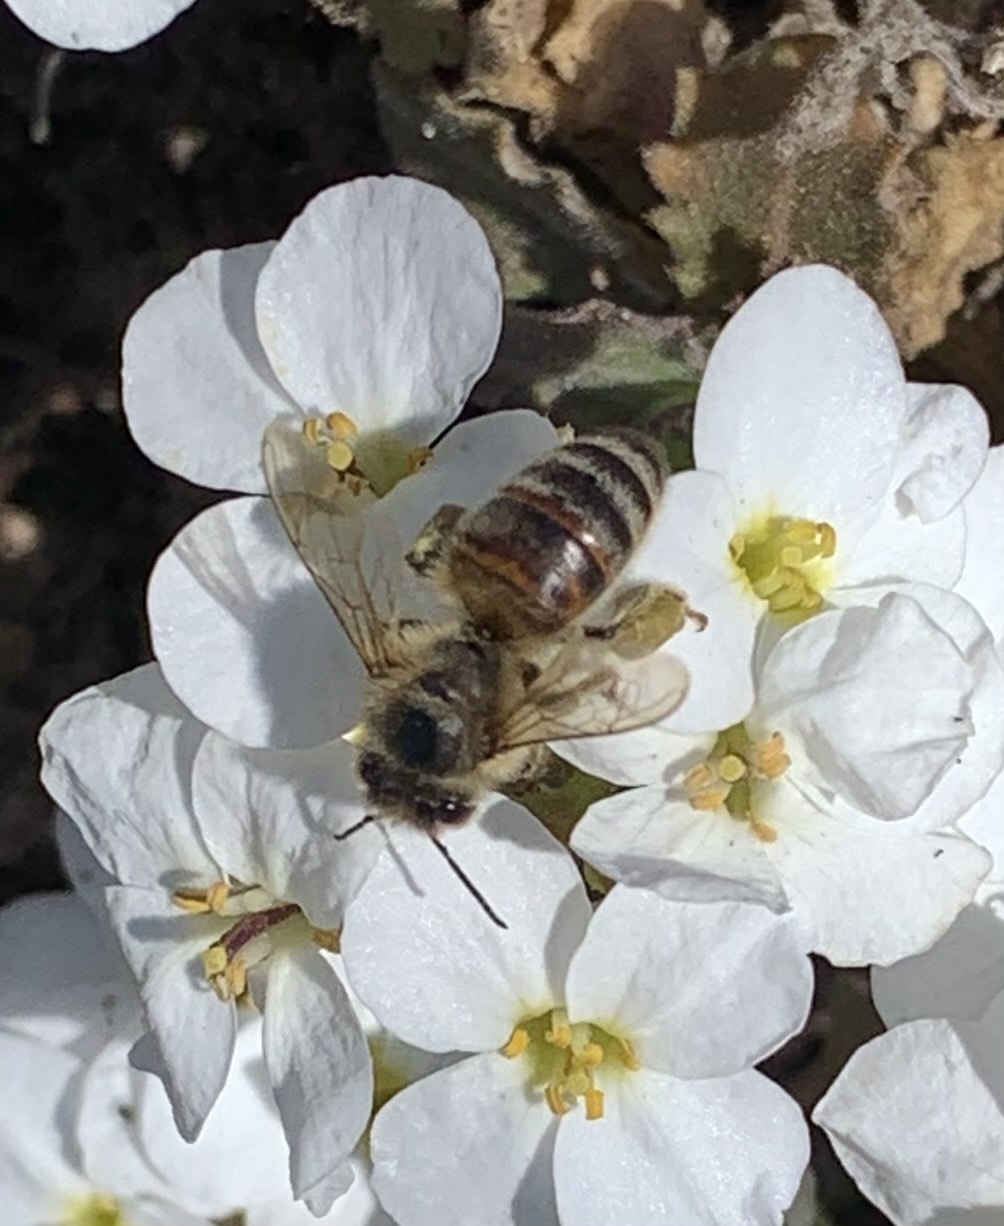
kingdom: Animalia
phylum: Arthropoda
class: Insecta
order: Hymenoptera
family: Apidae
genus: Apis
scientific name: Apis mellifera
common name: Honey bee
